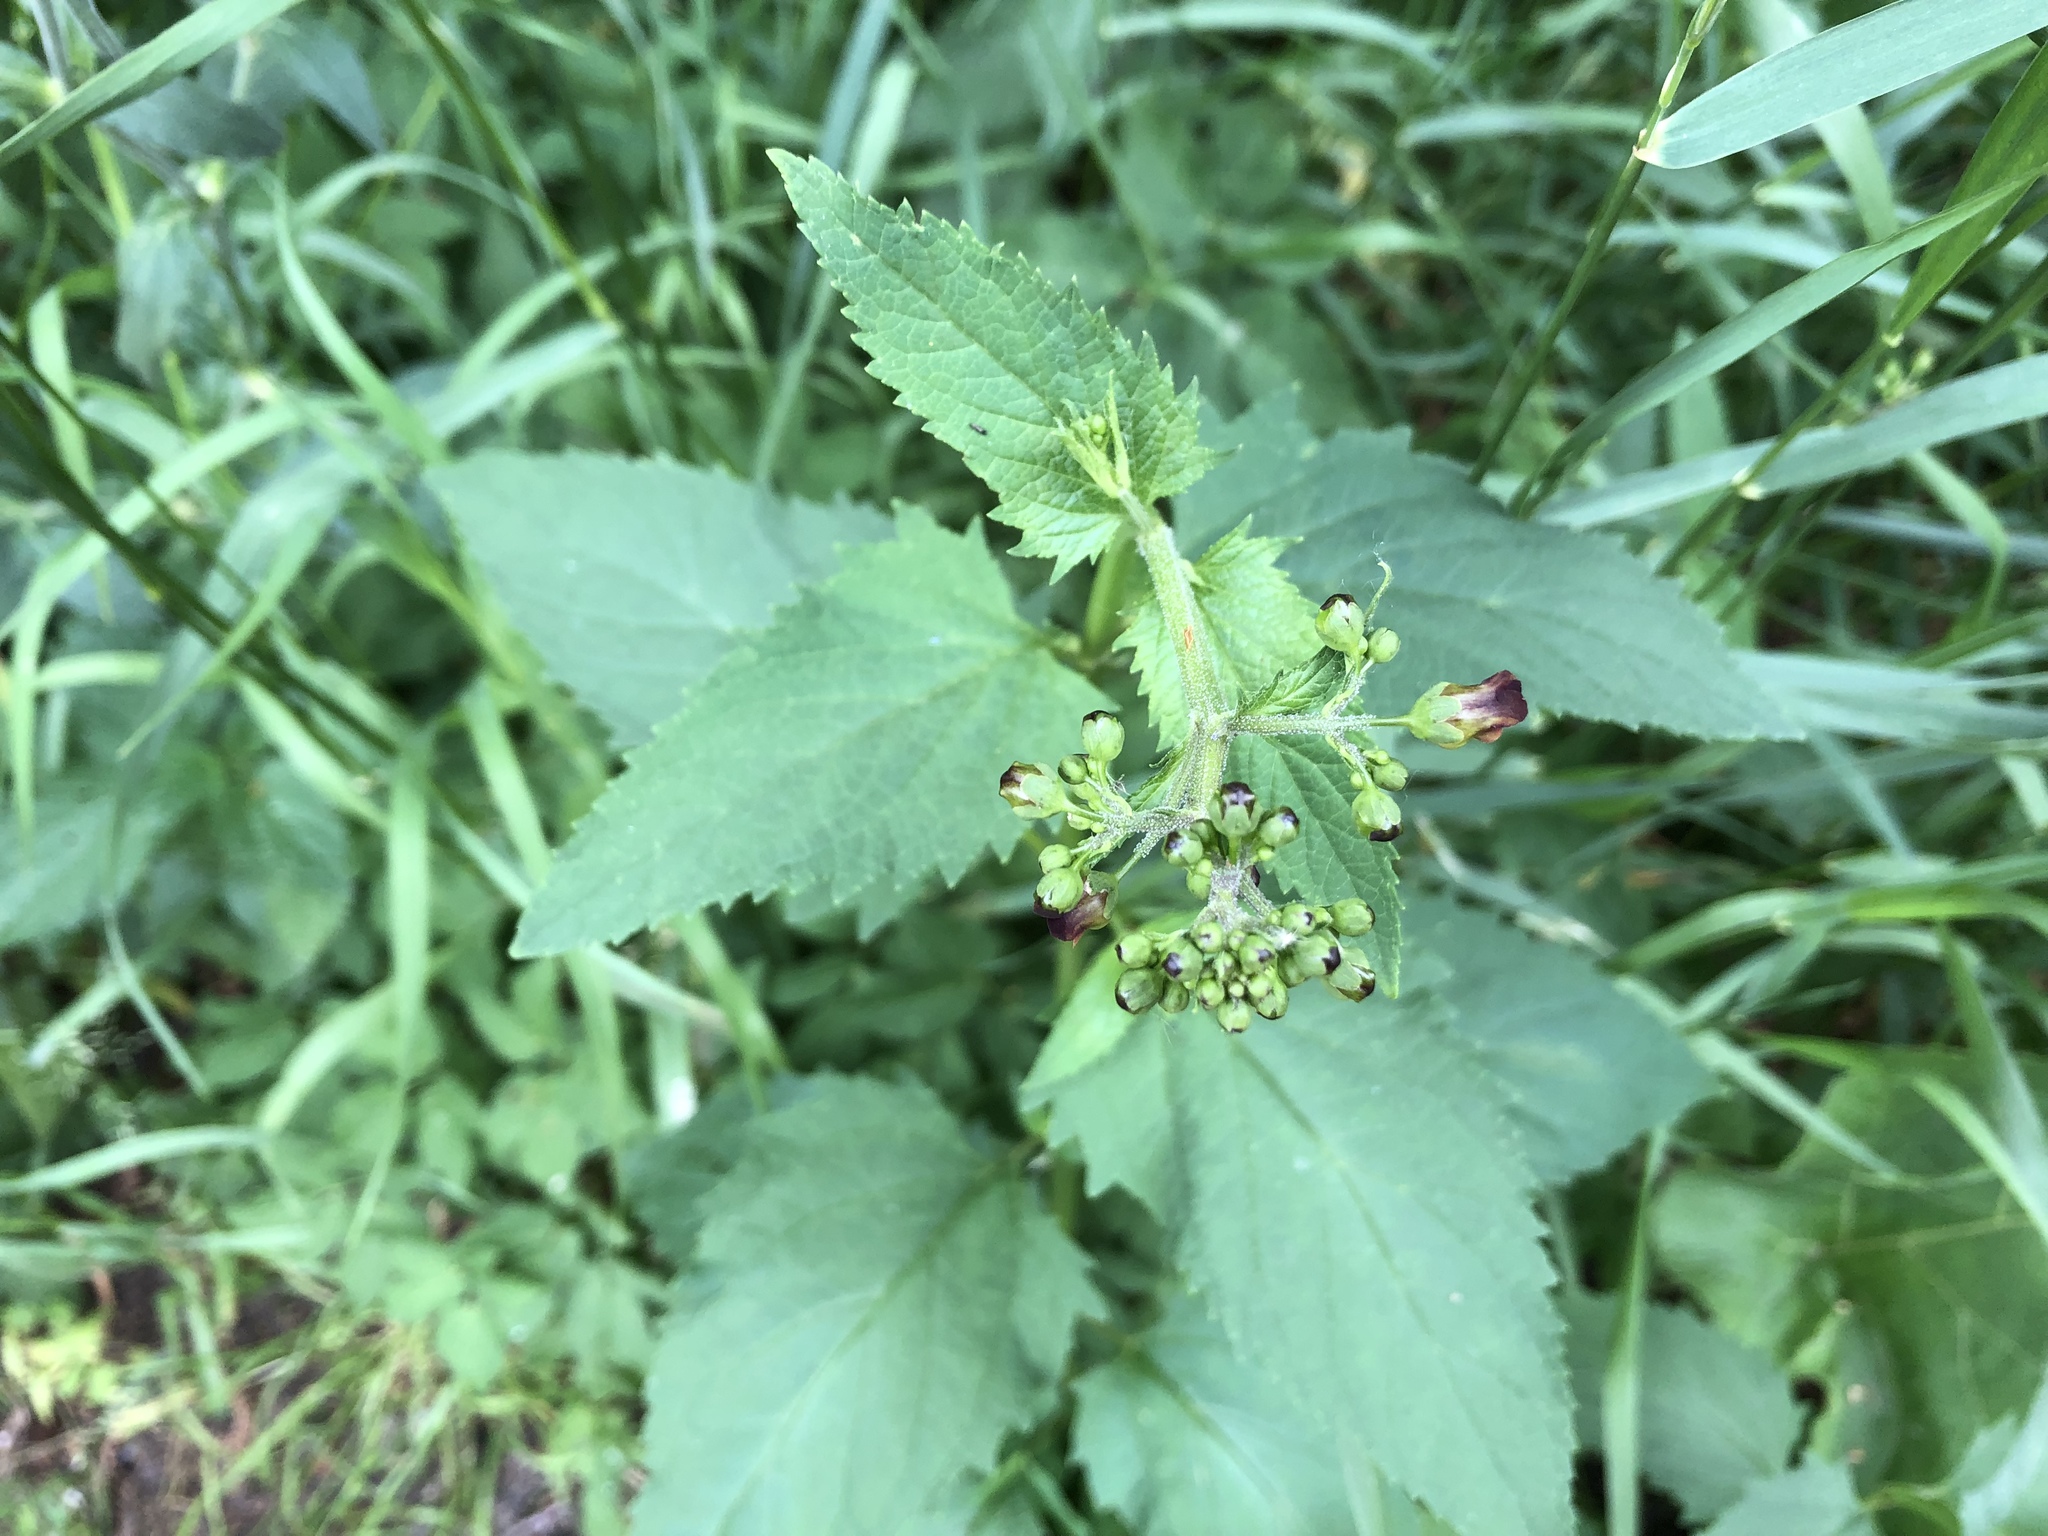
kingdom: Plantae
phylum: Tracheophyta
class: Magnoliopsida
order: Lamiales
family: Scrophulariaceae
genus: Scrophularia
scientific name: Scrophularia nodosa
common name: Common figwort
